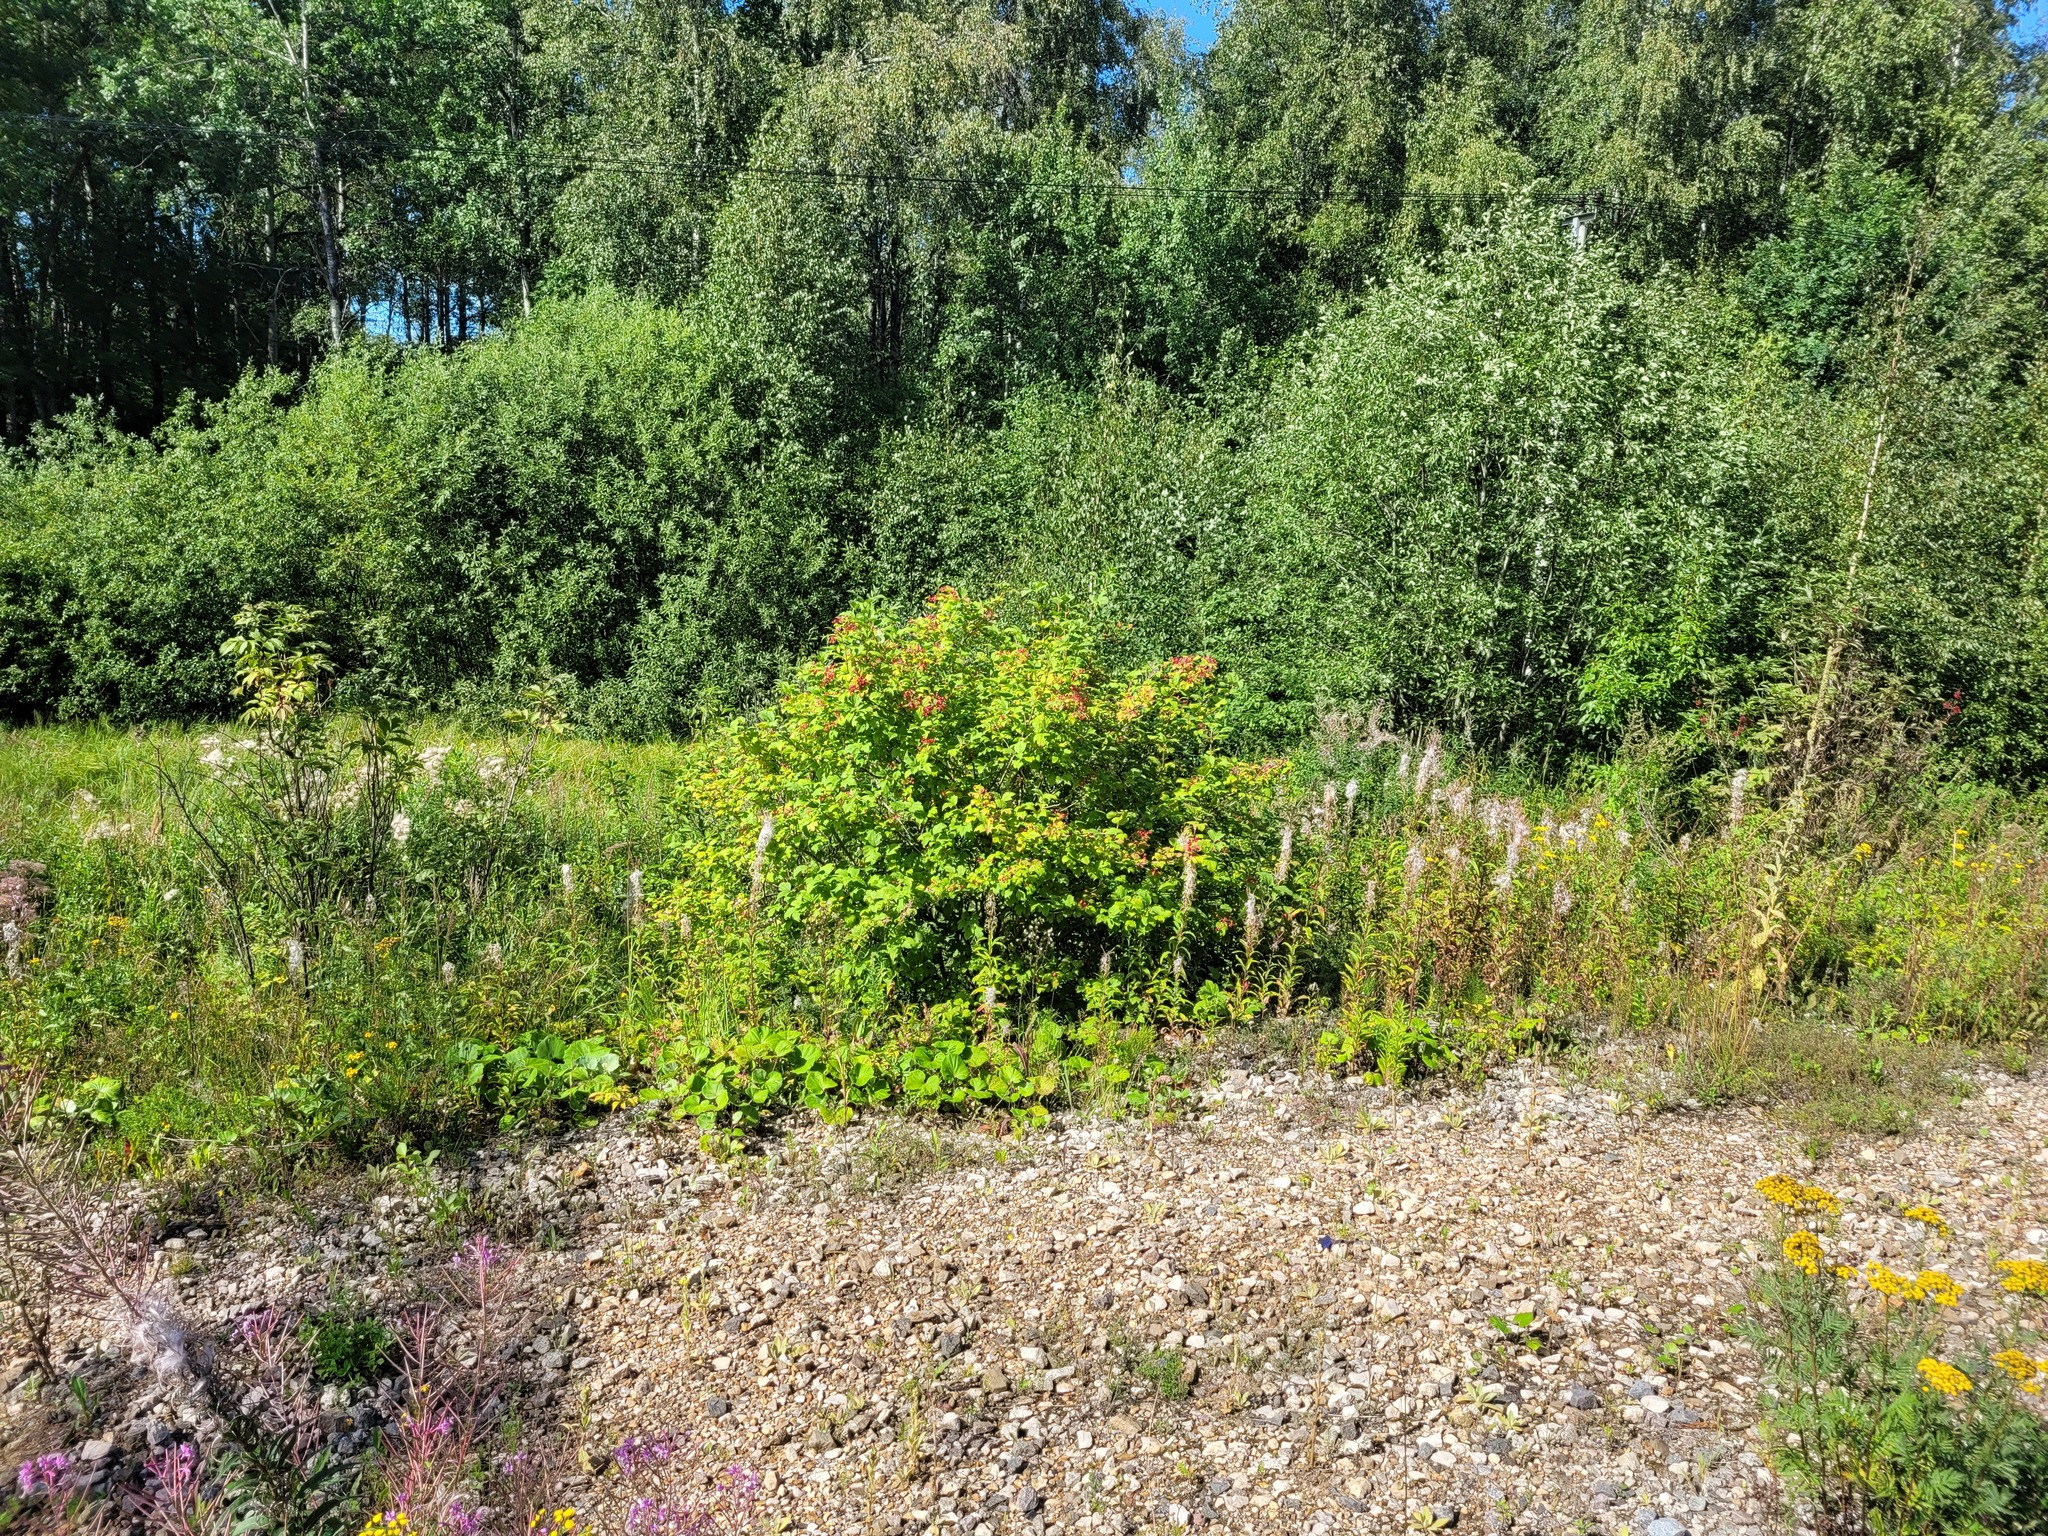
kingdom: Plantae
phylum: Tracheophyta
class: Magnoliopsida
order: Dipsacales
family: Viburnaceae
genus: Viburnum
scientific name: Viburnum opulus
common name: Guelder-rose
